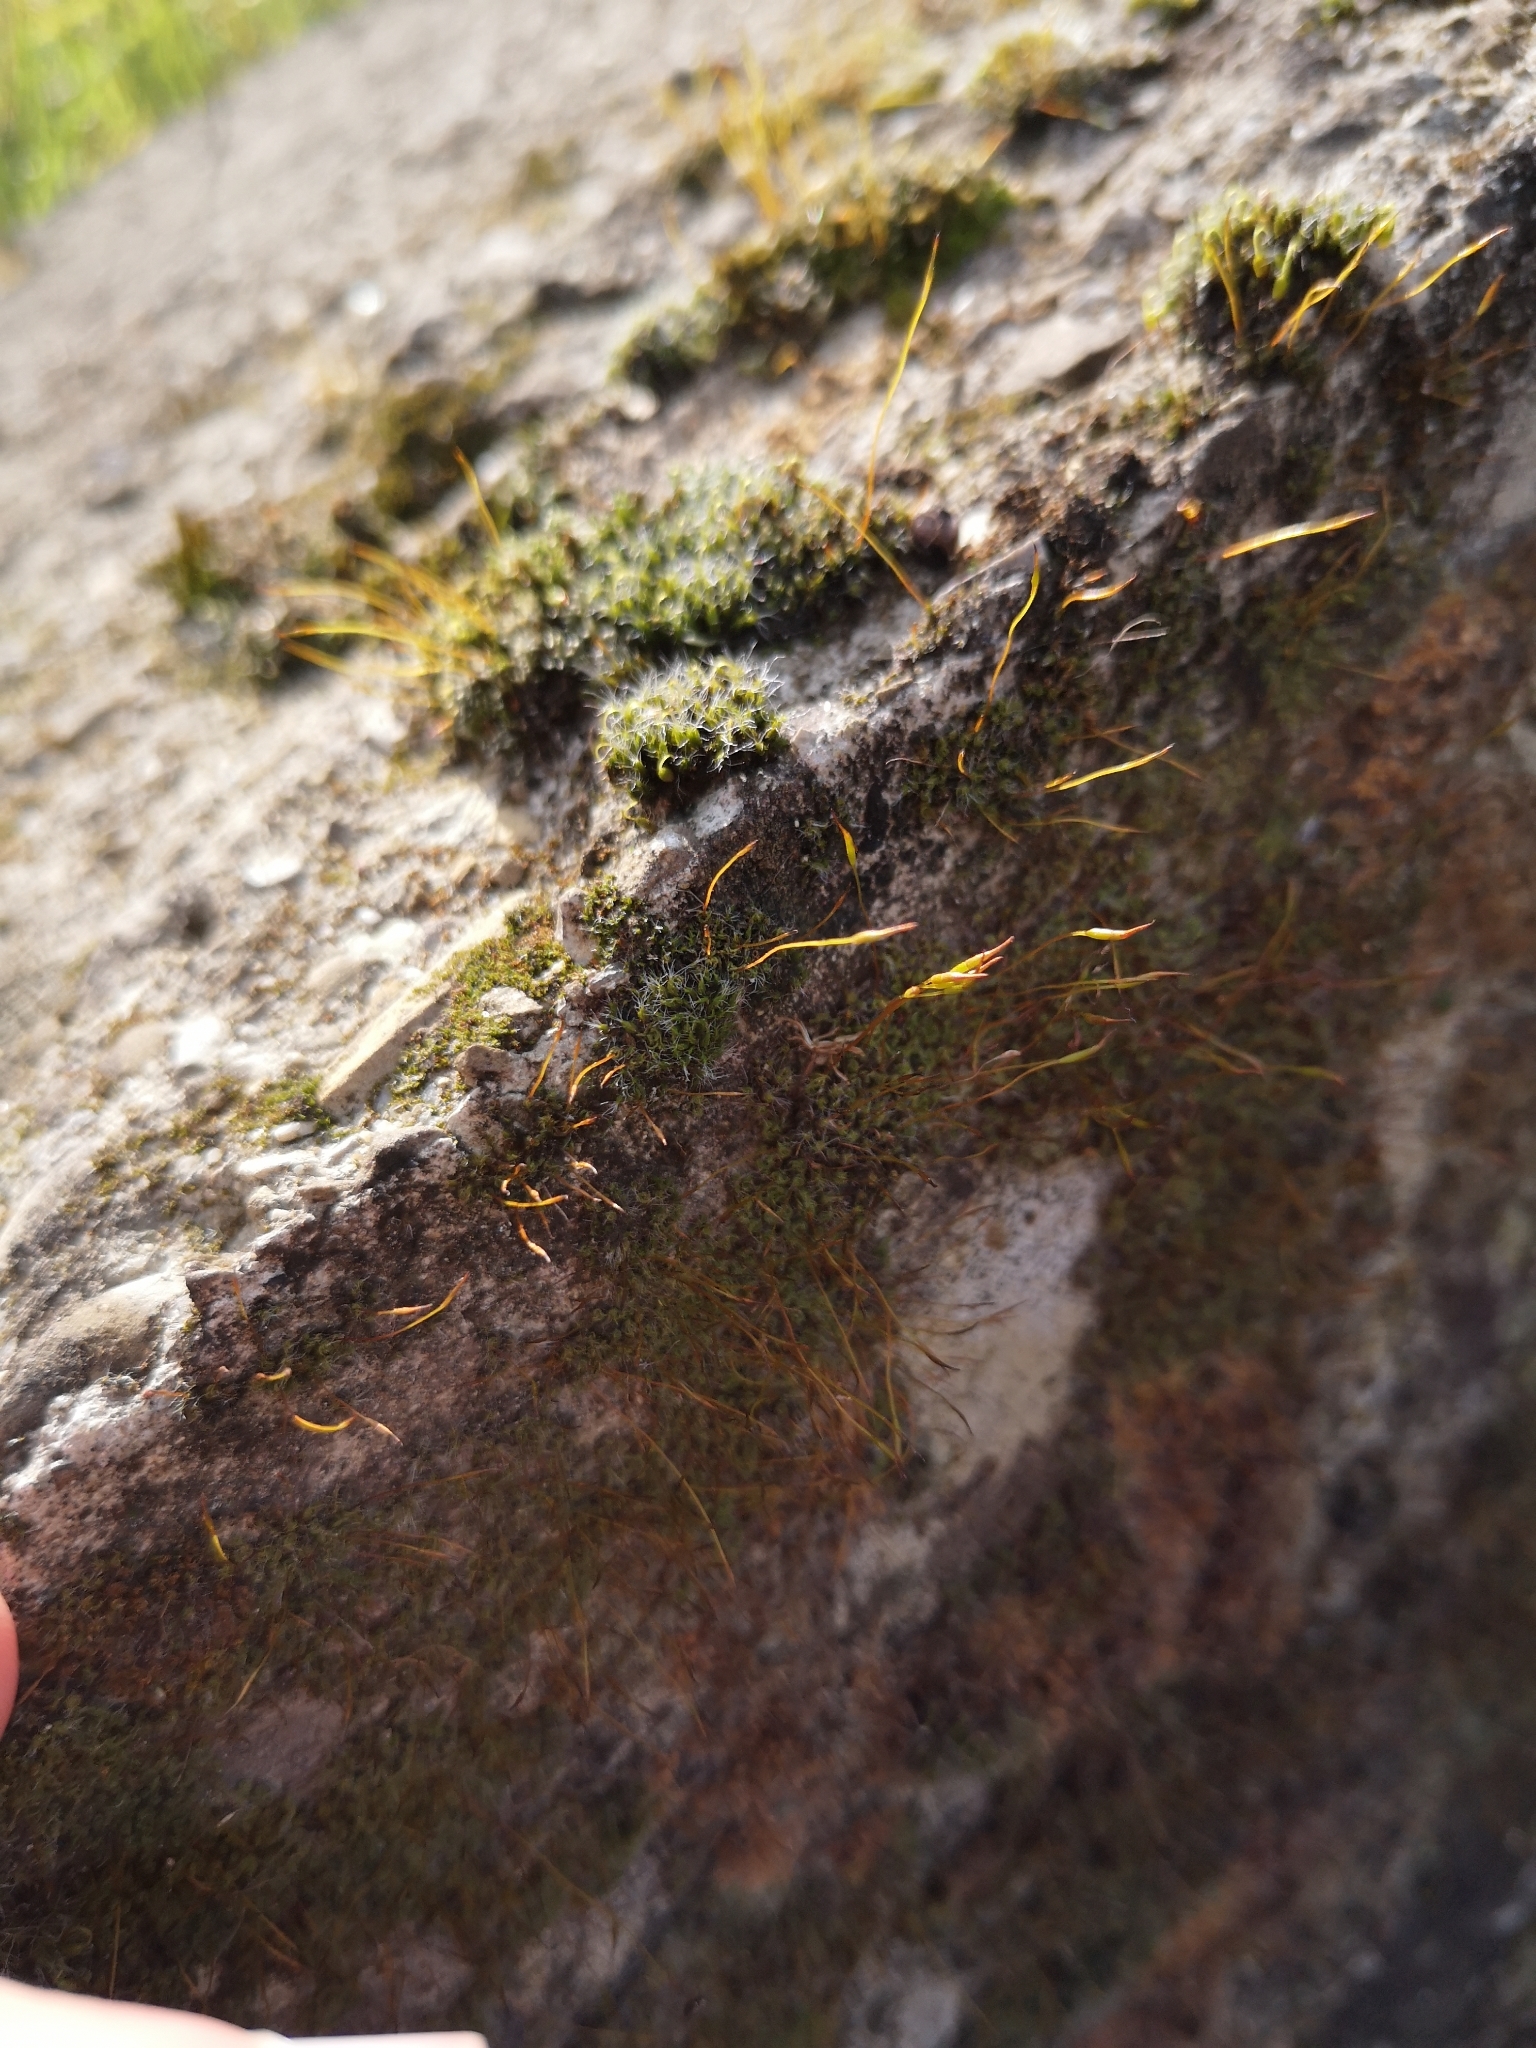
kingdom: Plantae
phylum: Bryophyta
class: Bryopsida
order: Pottiales
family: Pottiaceae
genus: Tortula
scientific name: Tortula muralis
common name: Wall screw-moss
